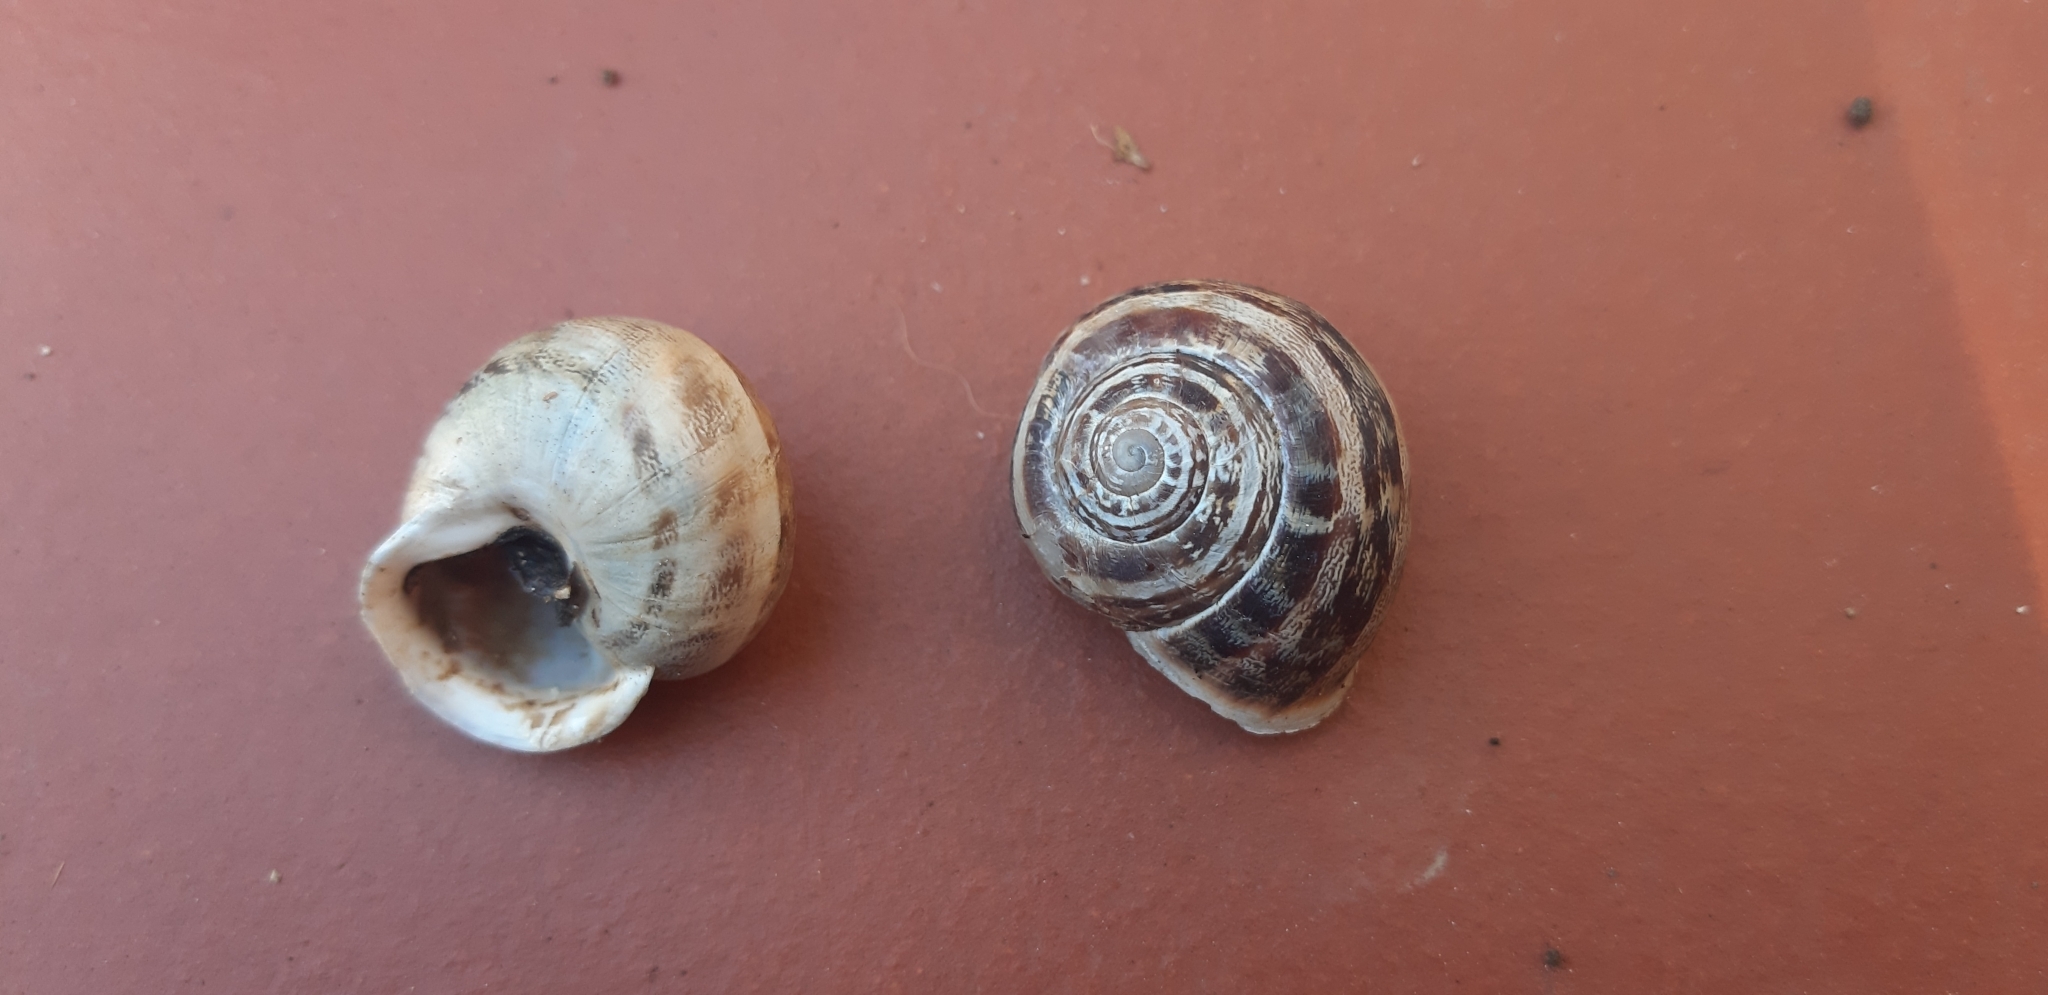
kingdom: Animalia
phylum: Mollusca
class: Gastropoda
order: Stylommatophora
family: Helicidae
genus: Eobania
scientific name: Eobania vermiculata
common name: Chocolateband snail
